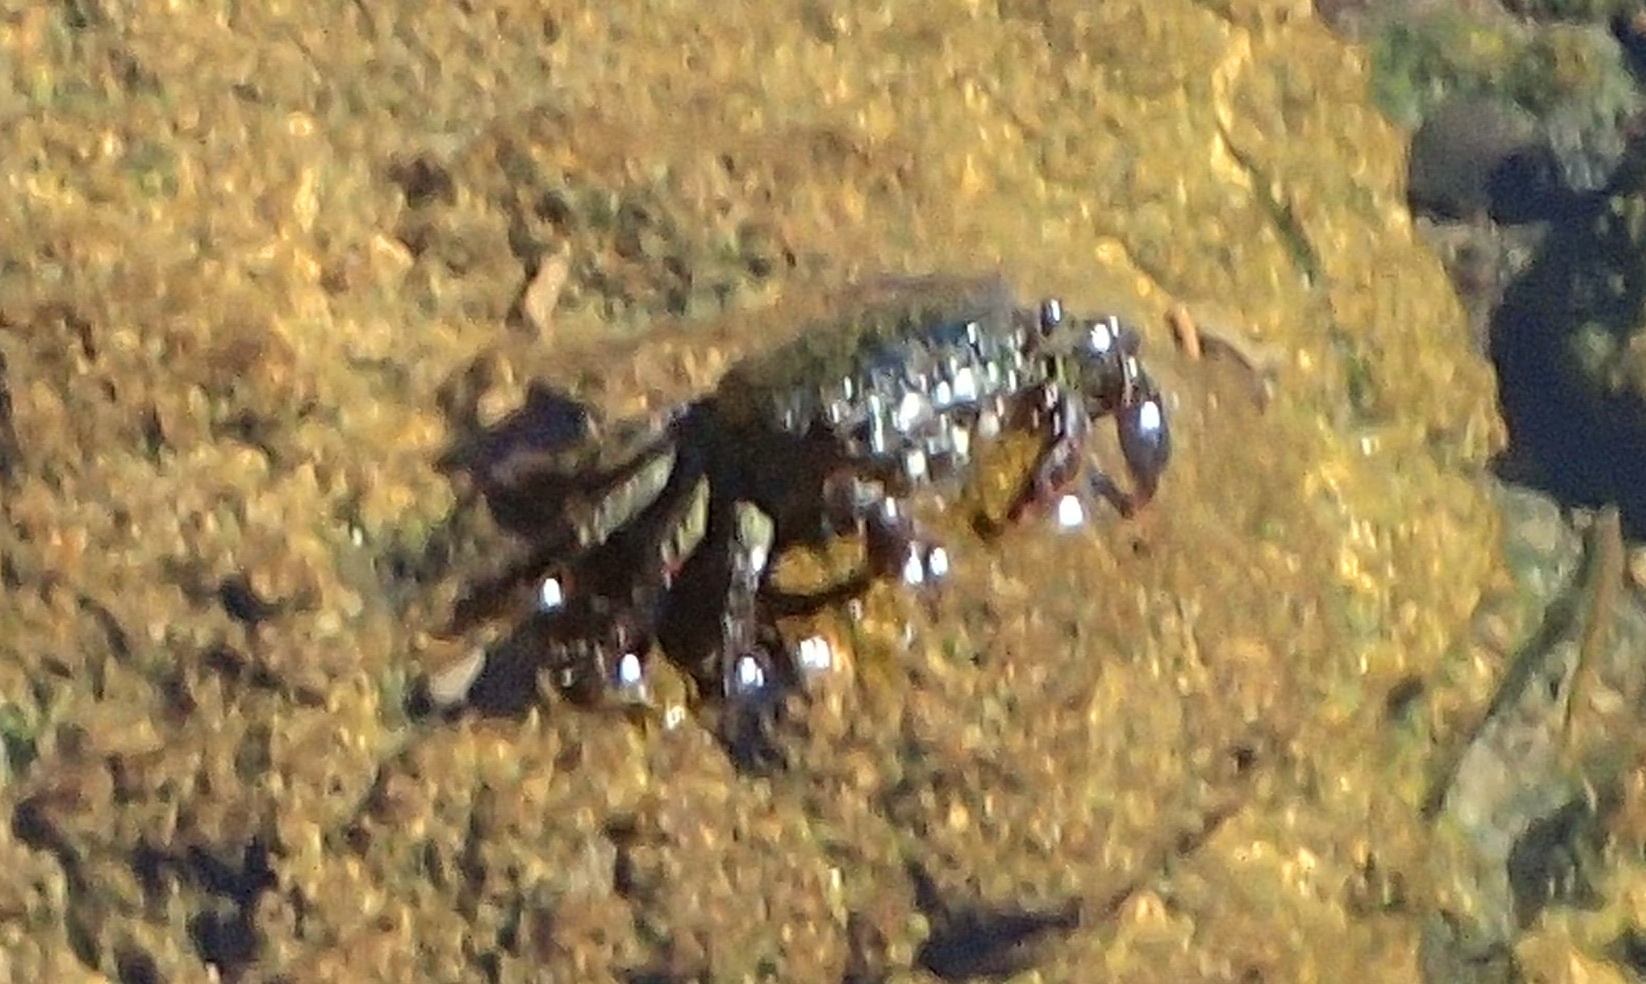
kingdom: Animalia
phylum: Arthropoda
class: Malacostraca
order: Decapoda
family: Grapsidae
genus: Grapsus
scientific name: Grapsus tenuicrustatus
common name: Natal lightfoot crab
